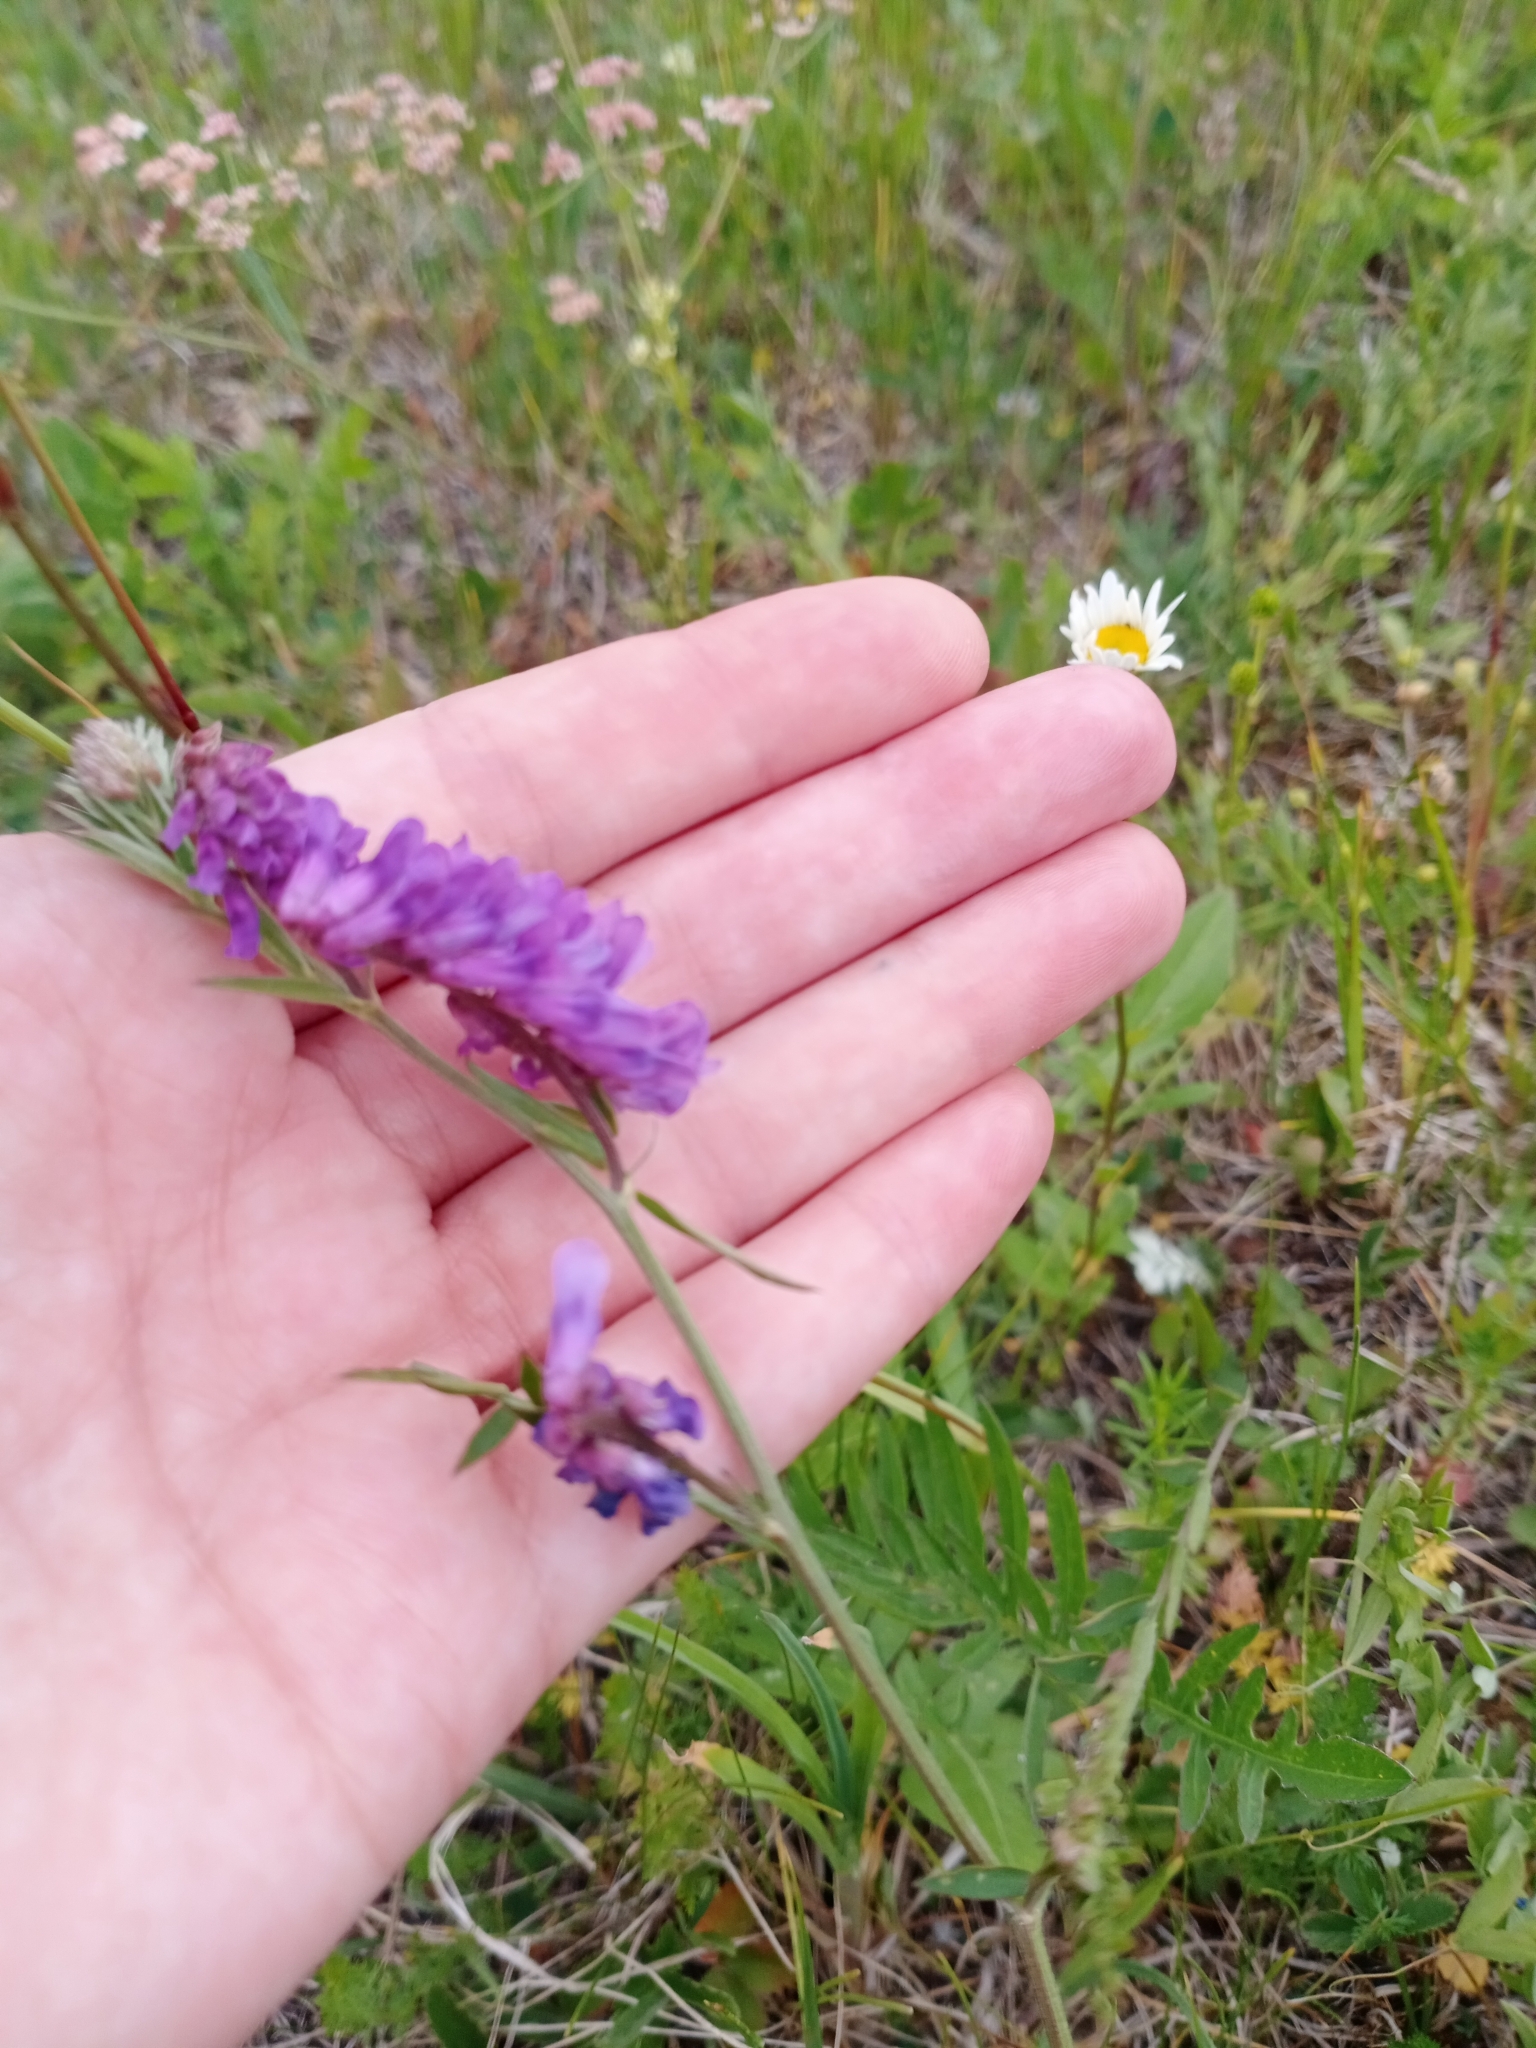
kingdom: Plantae
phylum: Tracheophyta
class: Magnoliopsida
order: Fabales
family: Fabaceae
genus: Vicia
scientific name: Vicia cracca
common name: Bird vetch
